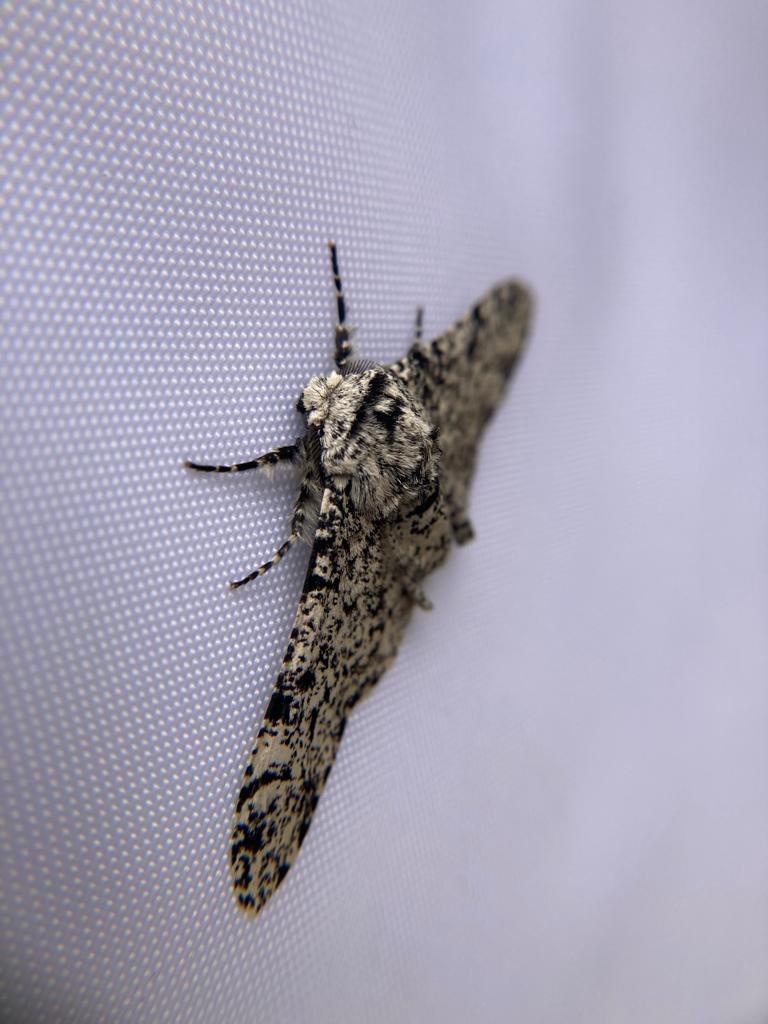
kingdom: Animalia
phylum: Arthropoda
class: Insecta
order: Lepidoptera
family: Geometridae
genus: Biston
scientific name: Biston betularia
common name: Peppered moth
